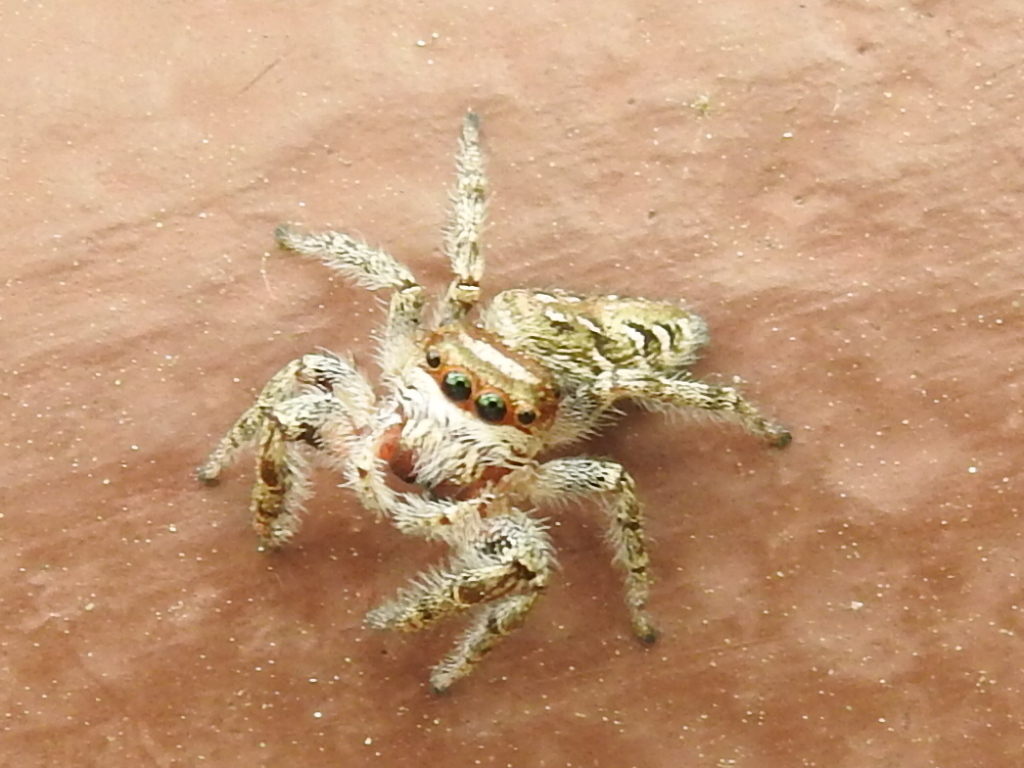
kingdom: Animalia
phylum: Arthropoda
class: Arachnida
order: Araneae
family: Salticidae
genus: Eris
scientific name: Eris militaris
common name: Bronze jumper
